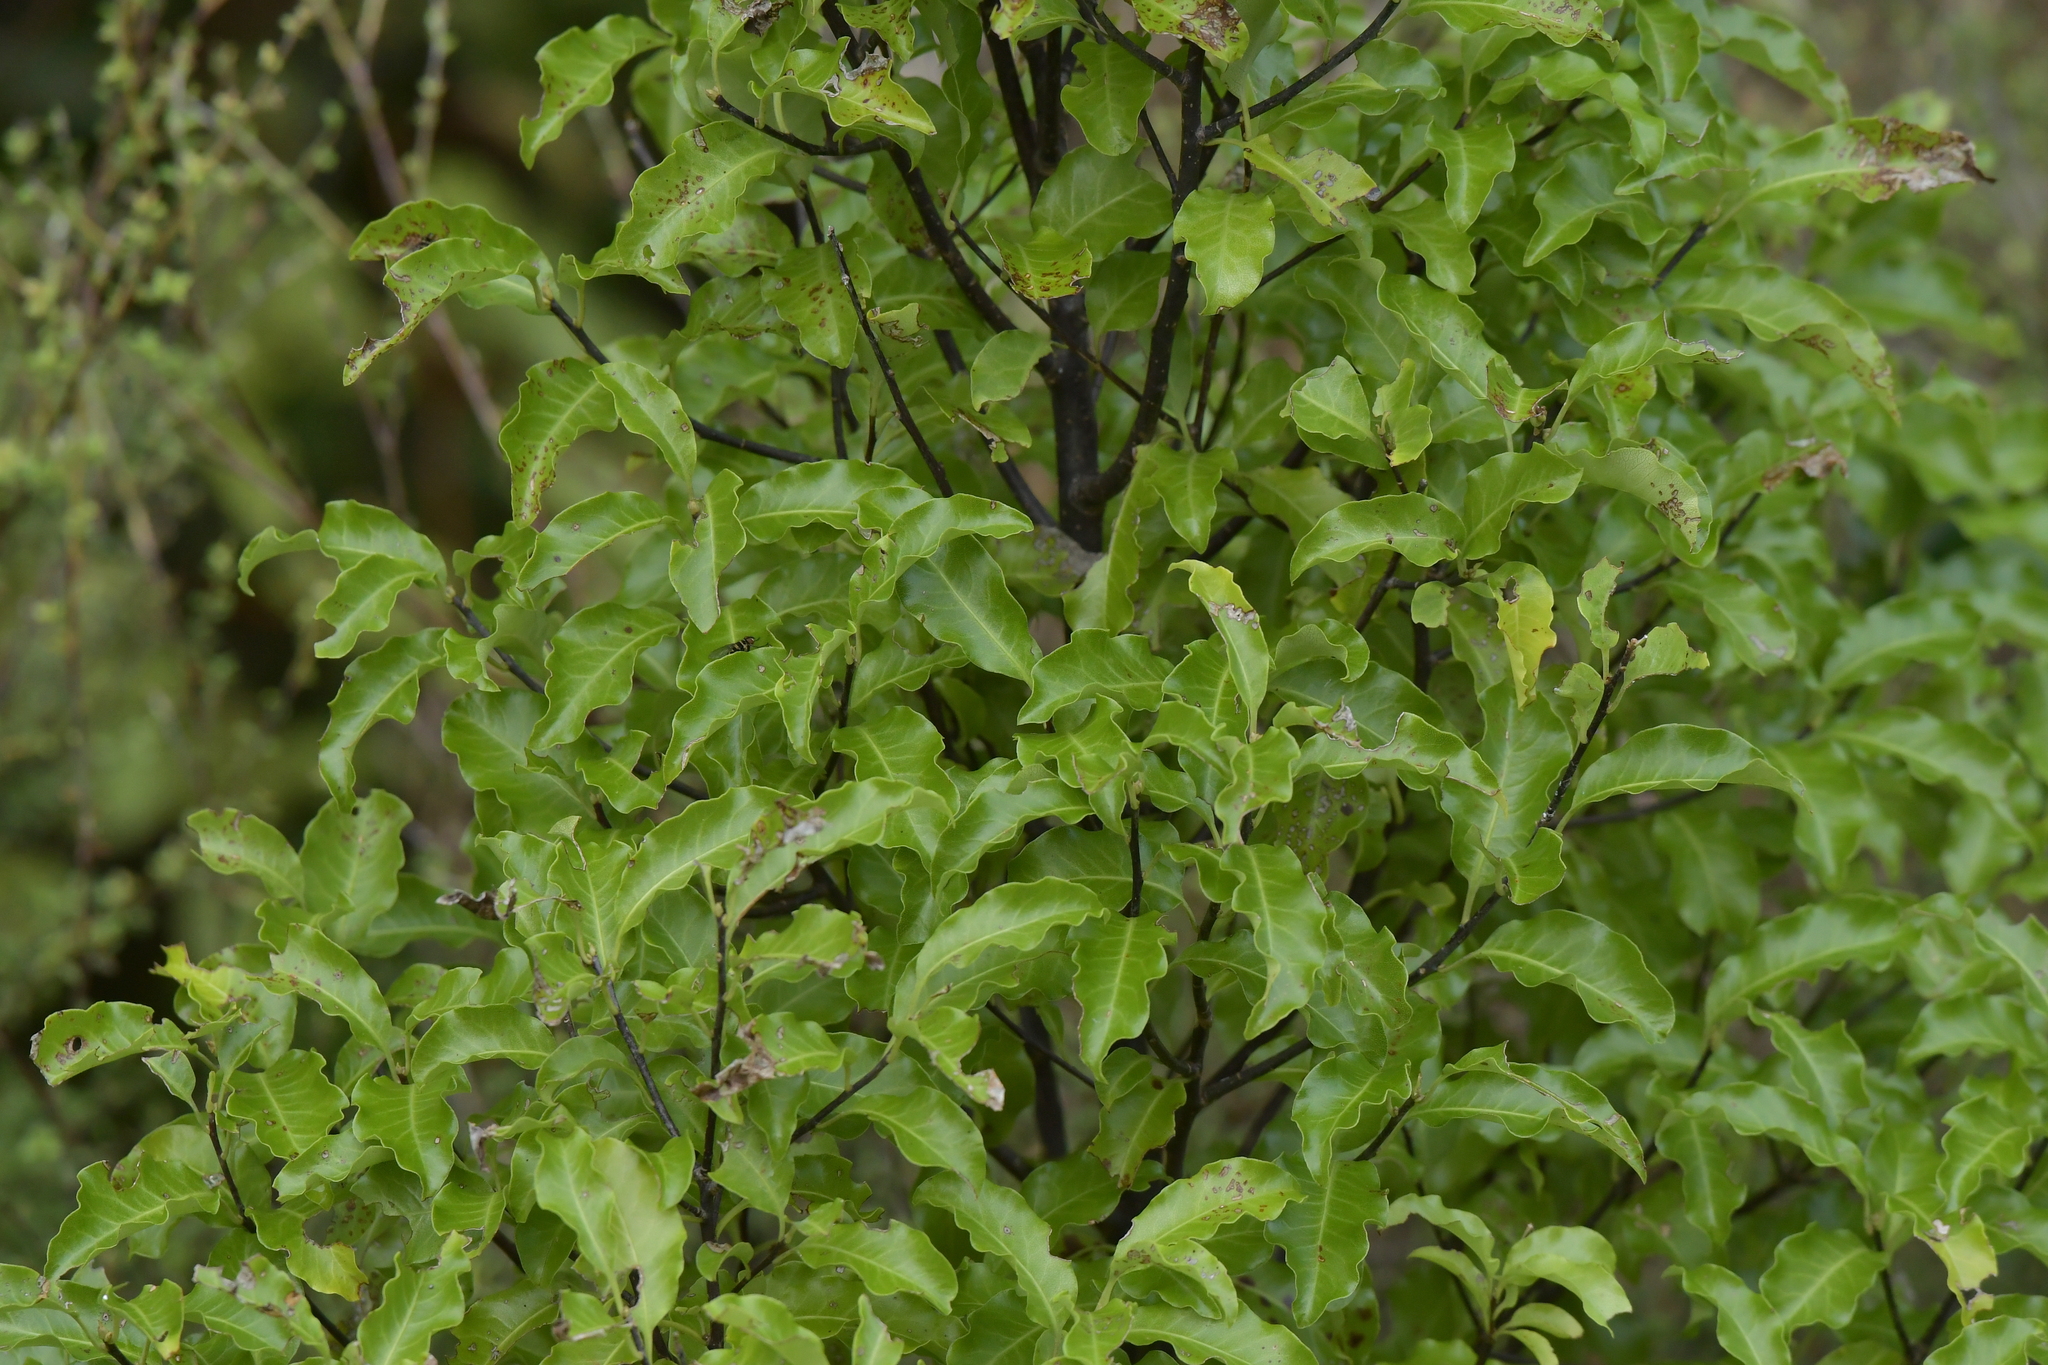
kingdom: Plantae
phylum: Tracheophyta
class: Magnoliopsida
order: Apiales
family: Pittosporaceae
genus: Pittosporum
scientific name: Pittosporum tenuifolium
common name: Kohuhu
